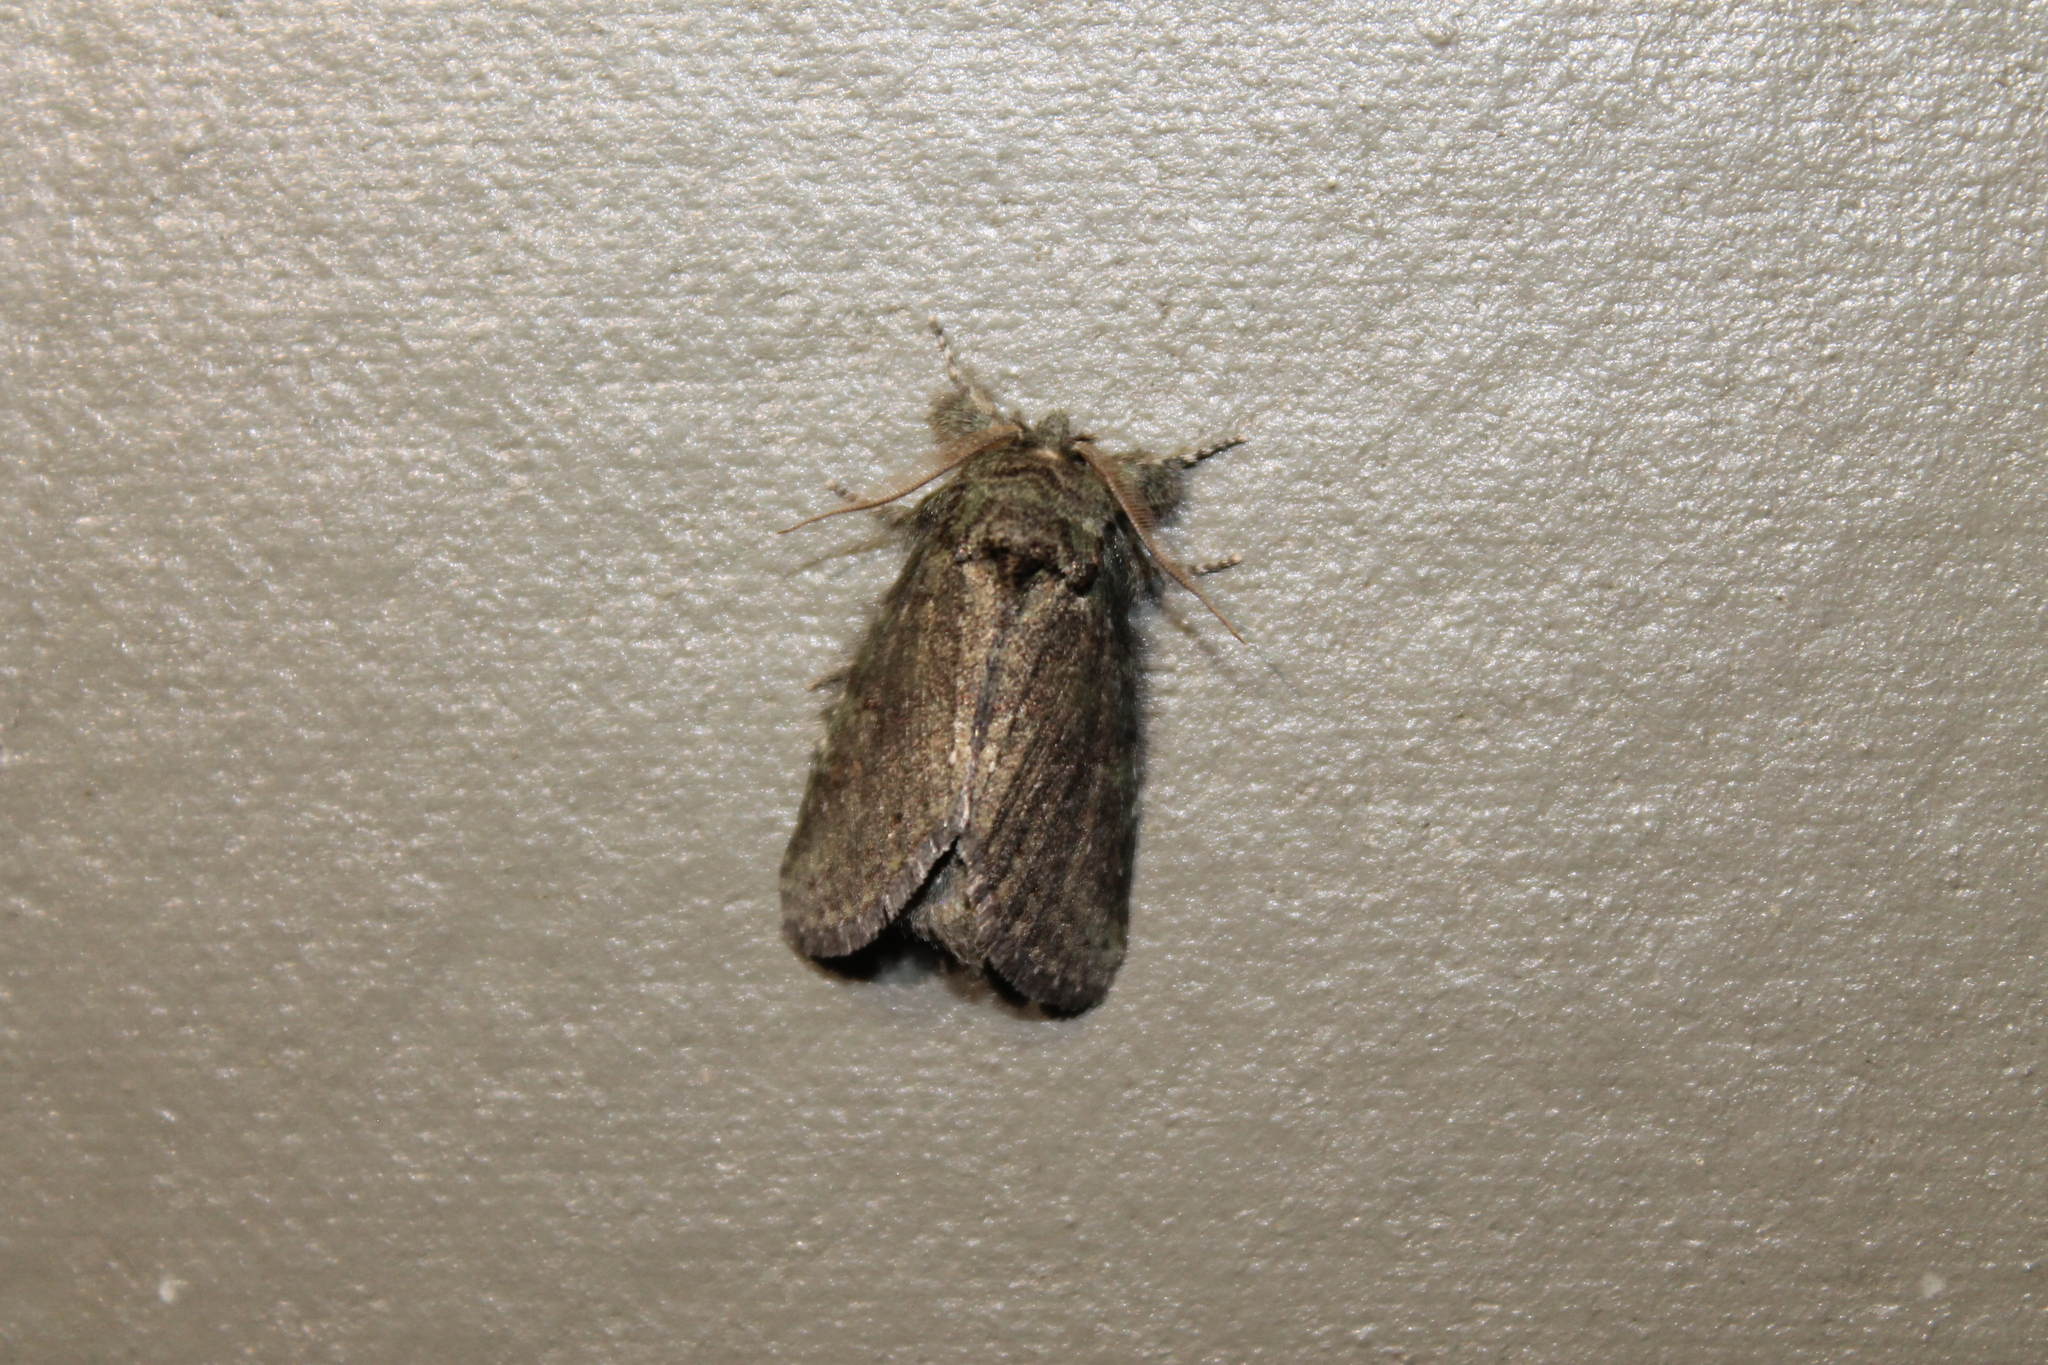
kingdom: Animalia
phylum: Arthropoda
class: Insecta
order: Lepidoptera
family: Notodontidae
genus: Disphragis
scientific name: Disphragis Cecrita guttivitta
